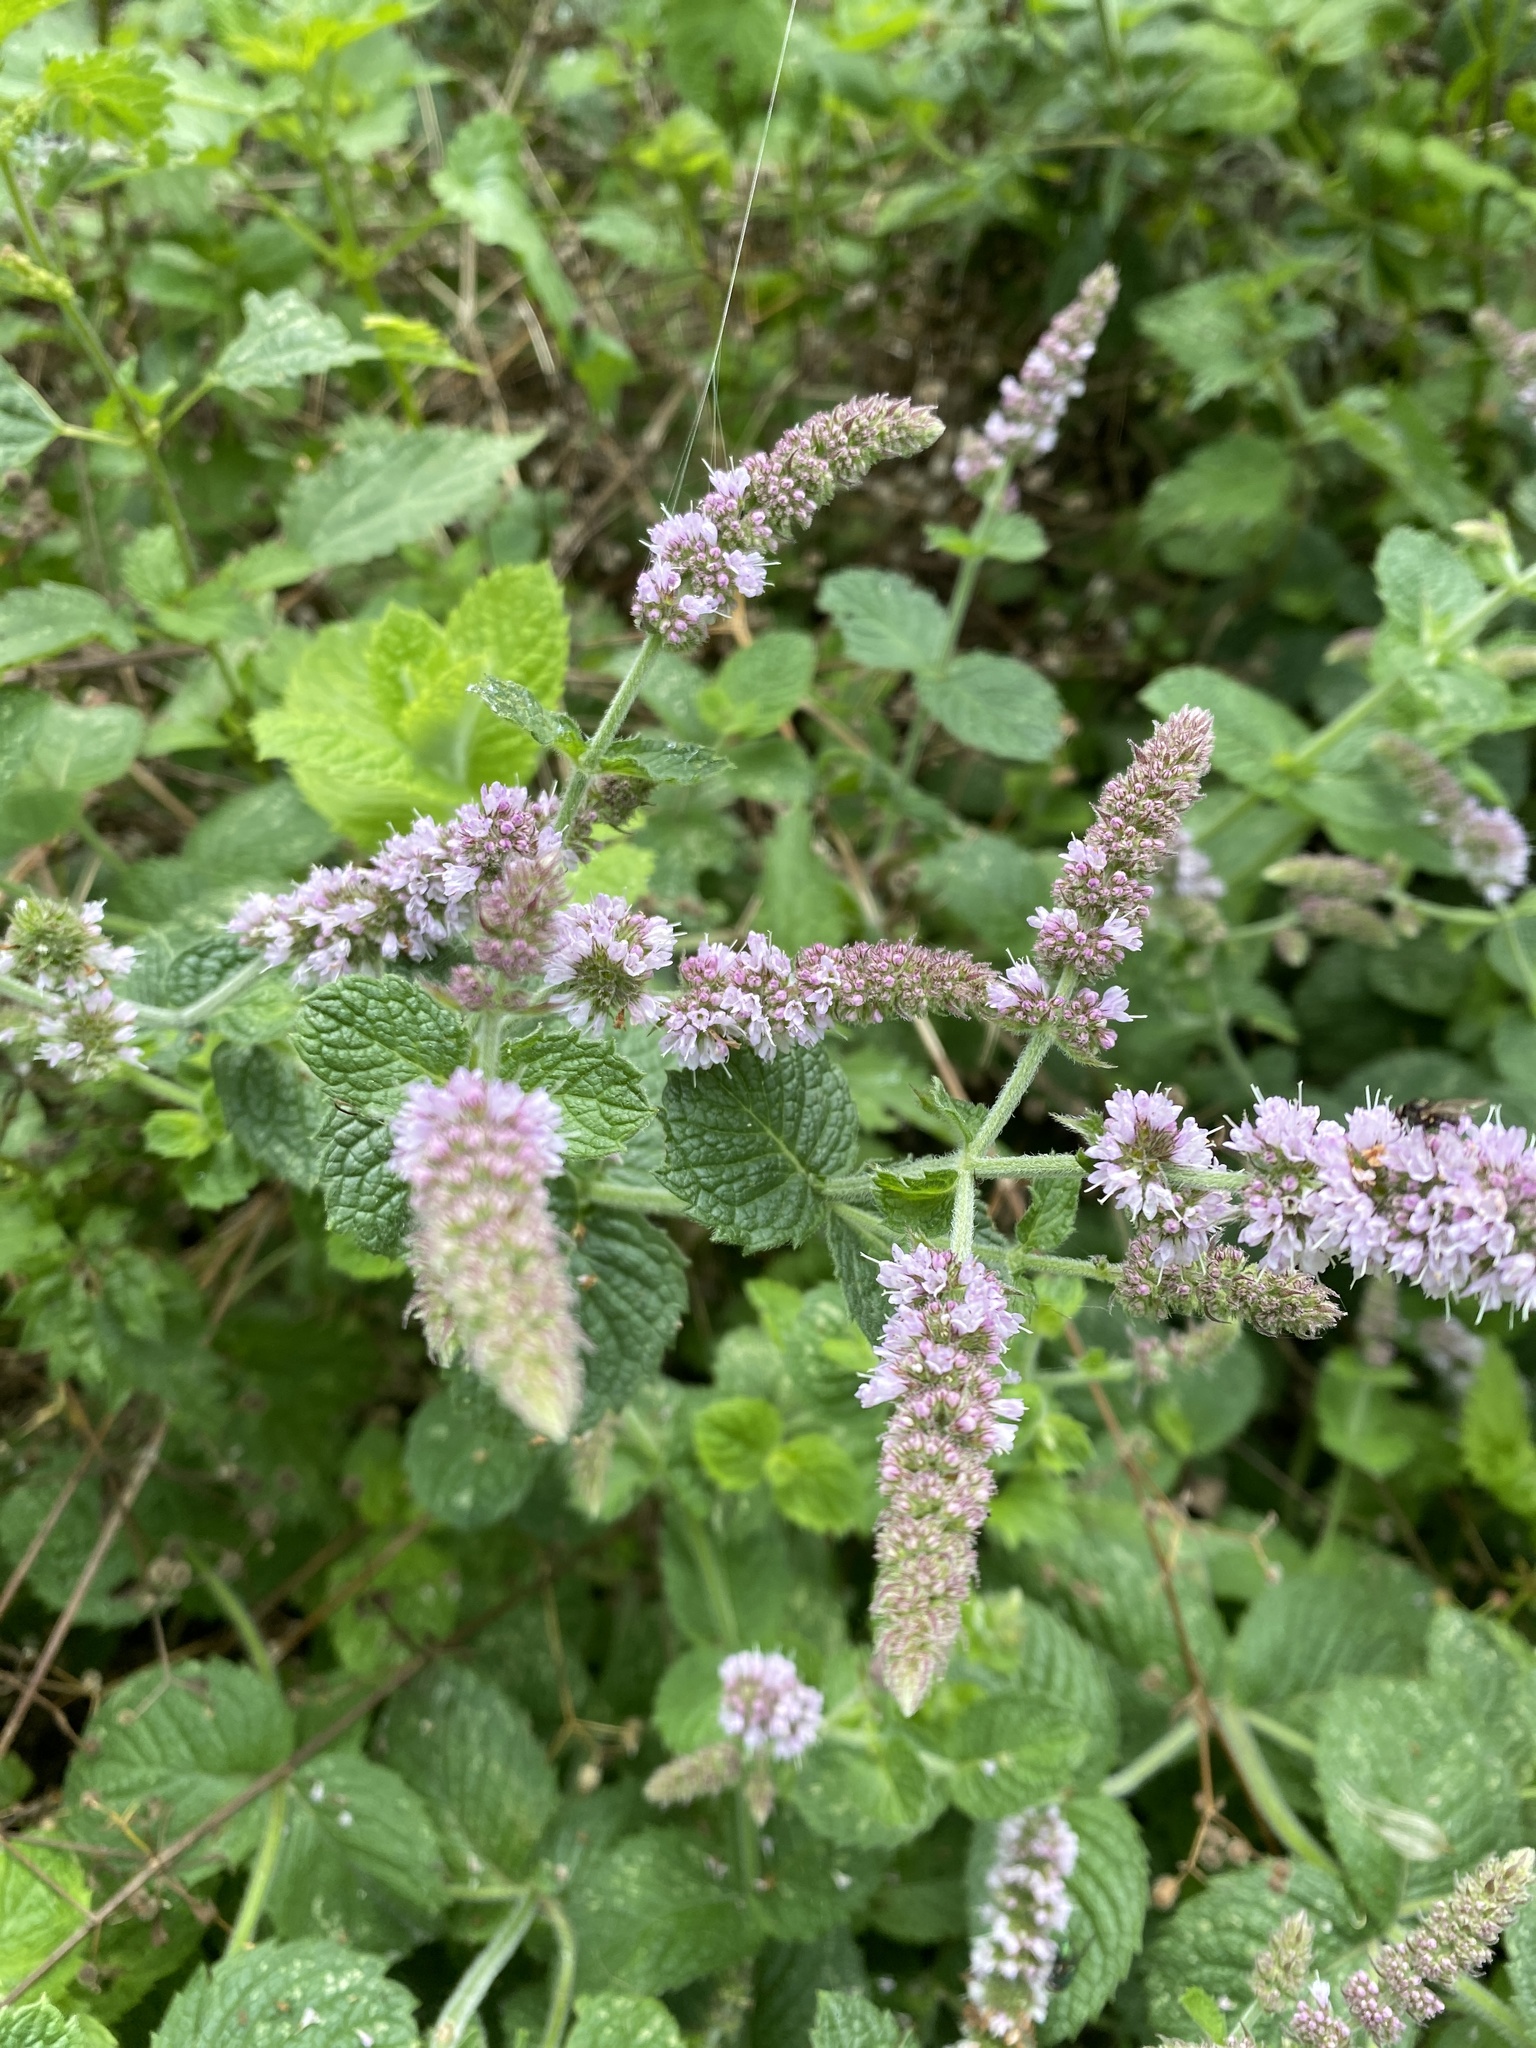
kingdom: Plantae
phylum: Tracheophyta
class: Magnoliopsida
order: Lamiales
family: Lamiaceae
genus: Mentha
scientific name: Mentha villosa
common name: Apple mint
